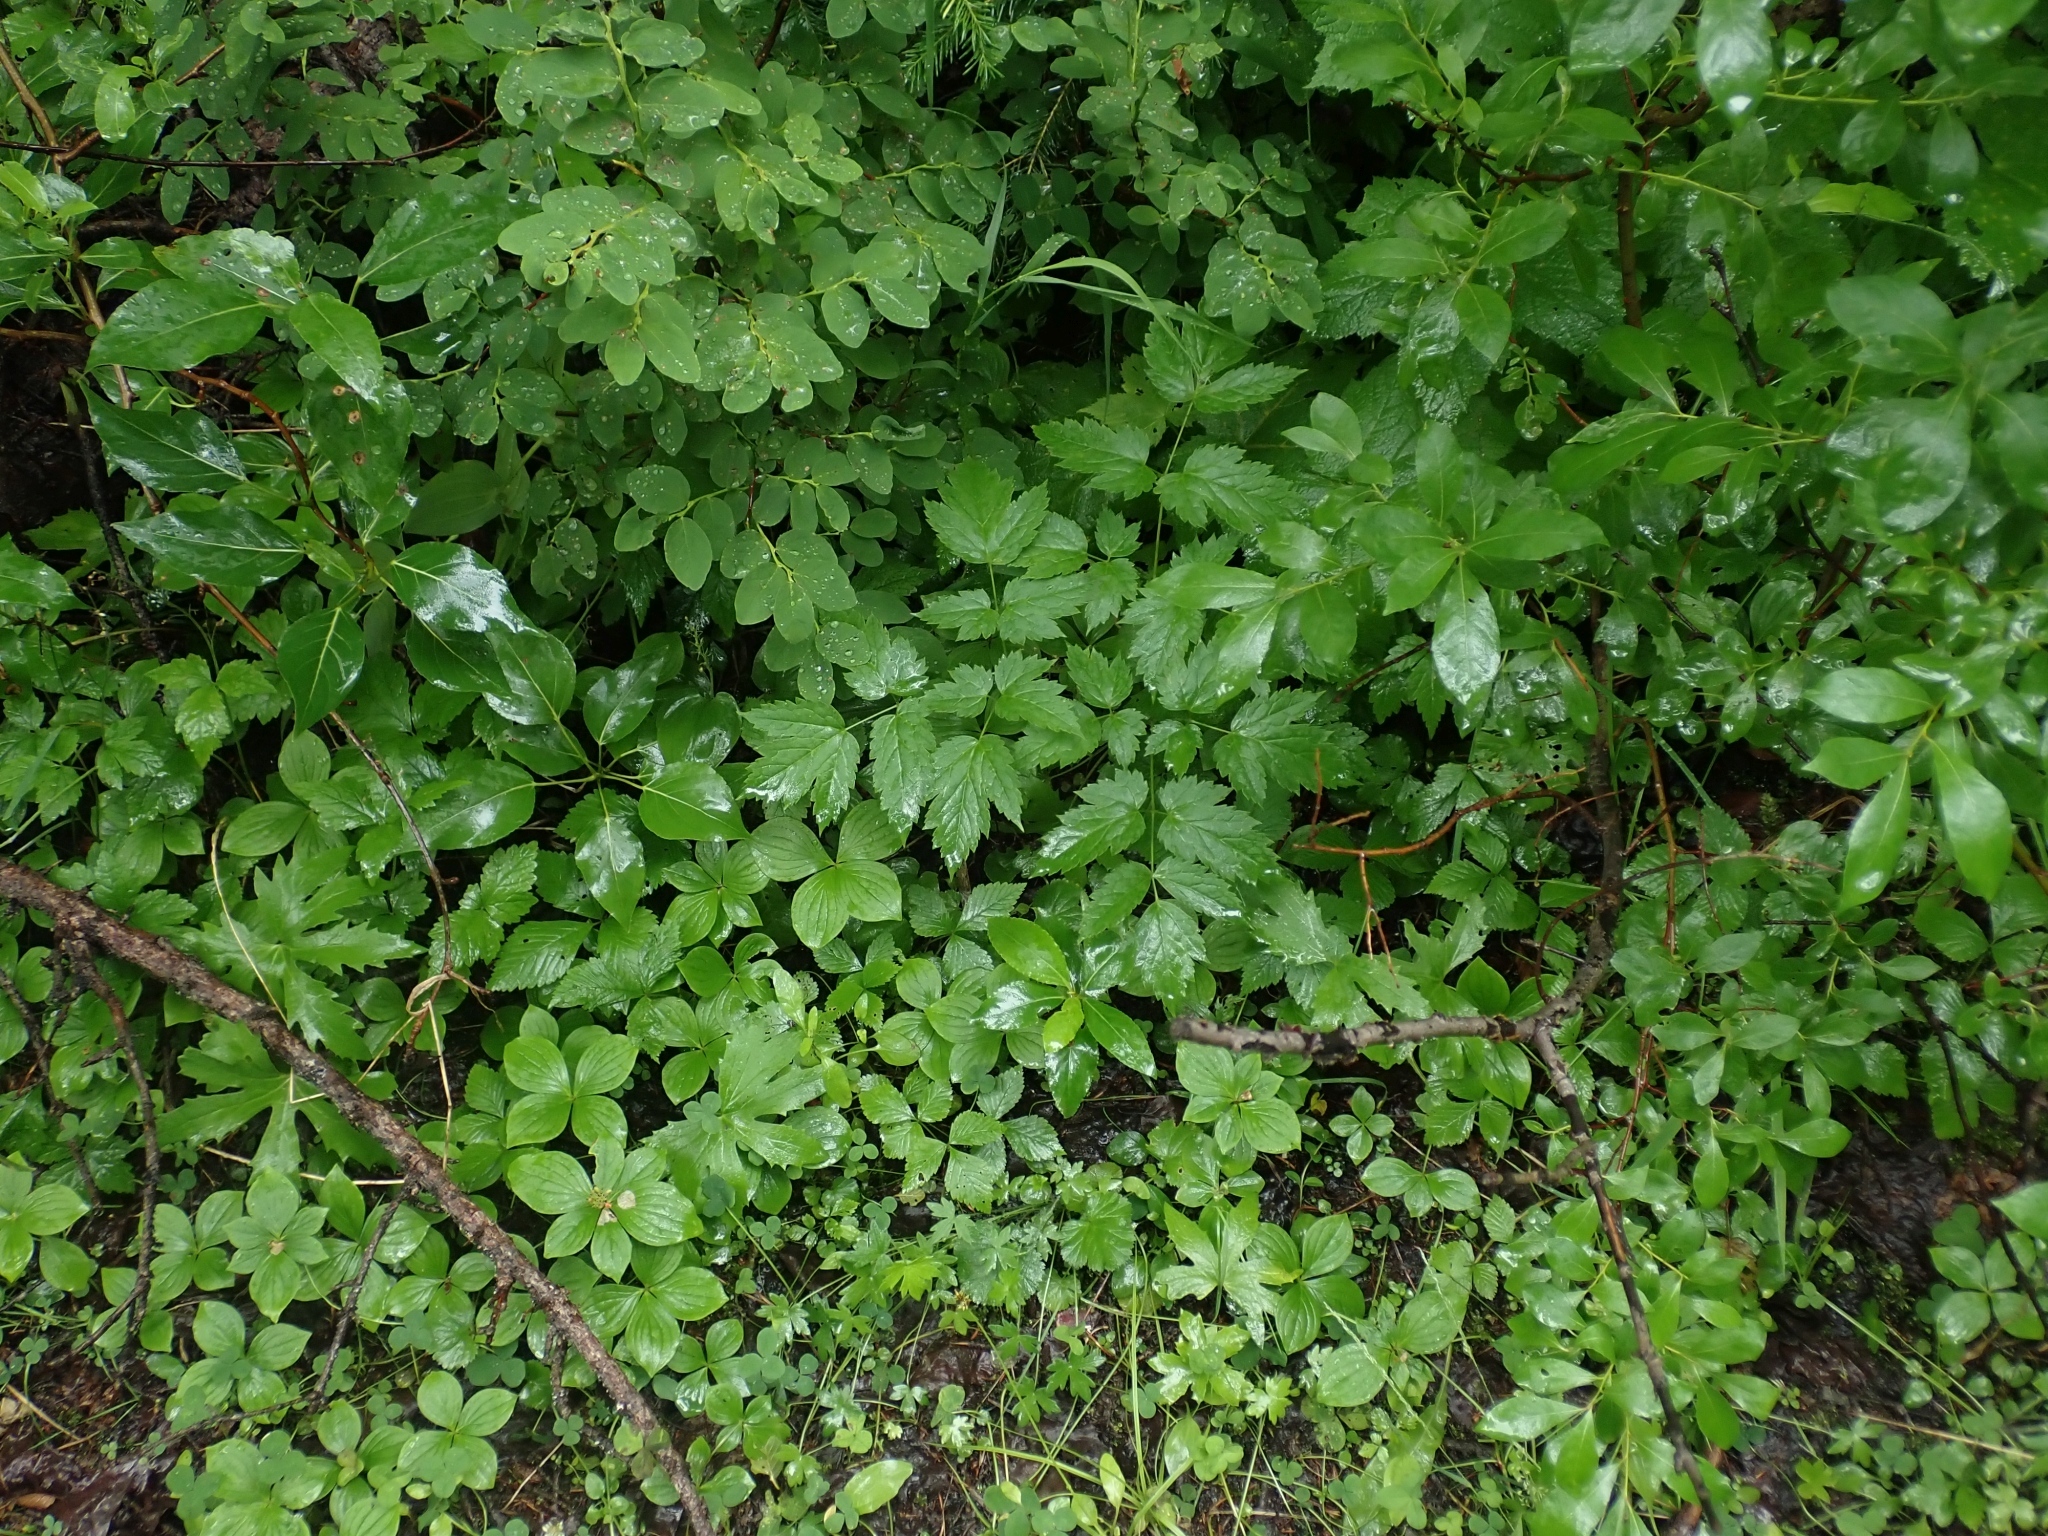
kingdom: Plantae
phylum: Tracheophyta
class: Magnoliopsida
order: Ranunculales
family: Ranunculaceae
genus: Actaea
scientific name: Actaea rubra
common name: Red baneberry
